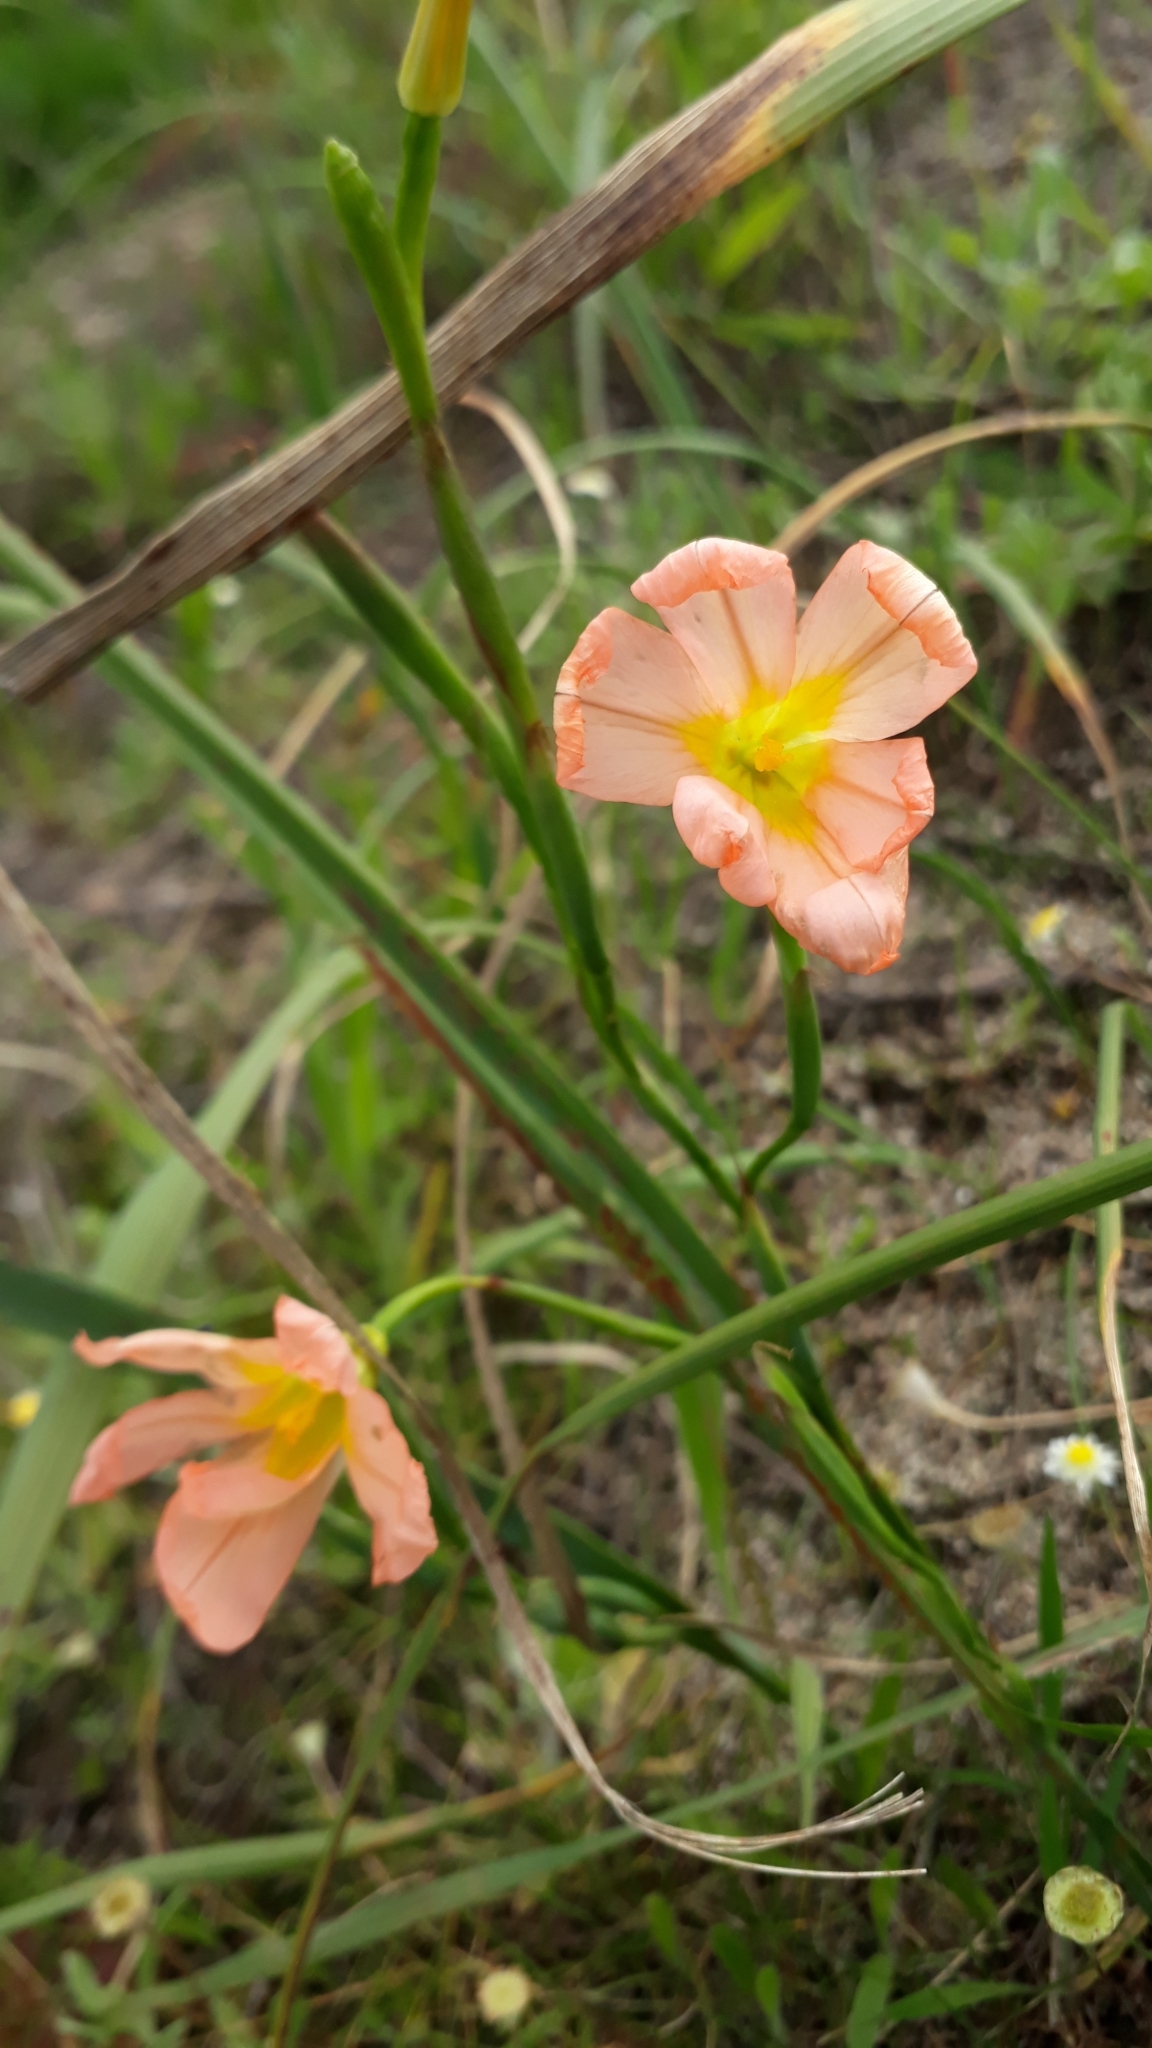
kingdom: Plantae
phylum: Tracheophyta
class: Liliopsida
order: Asparagales
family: Iridaceae
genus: Moraea
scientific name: Moraea flaccida
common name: One-leaf cape-tulip
